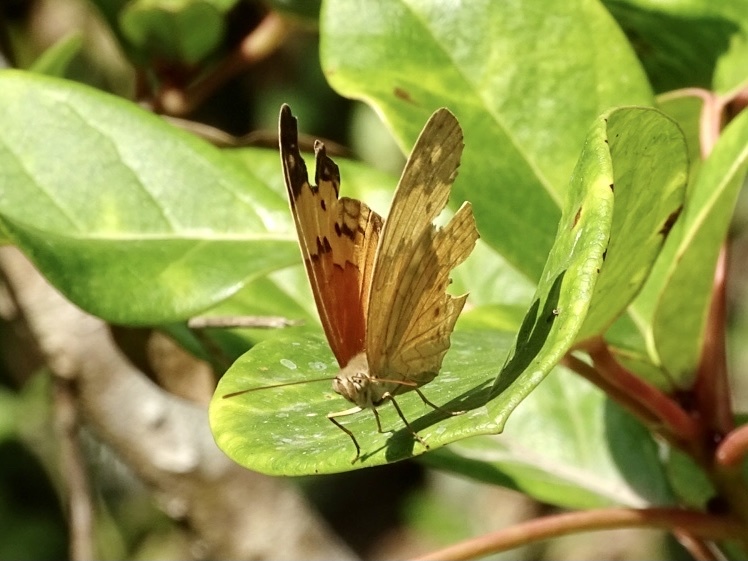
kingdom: Animalia
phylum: Arthropoda
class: Insecta
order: Lepidoptera
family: Nymphalidae
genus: Cupha
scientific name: Cupha erymanthis
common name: Rustic
